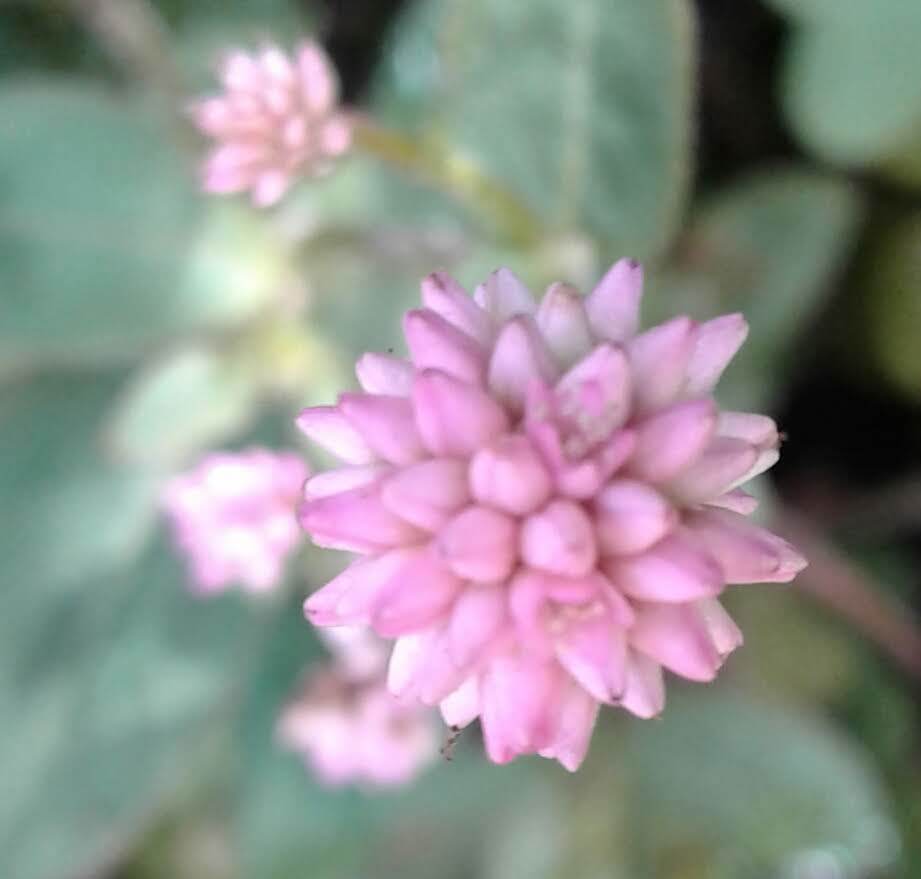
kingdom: Plantae
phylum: Tracheophyta
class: Magnoliopsida
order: Caryophyllales
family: Polygonaceae
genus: Persicaria
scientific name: Persicaria capitata
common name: Pinkhead smartweed
